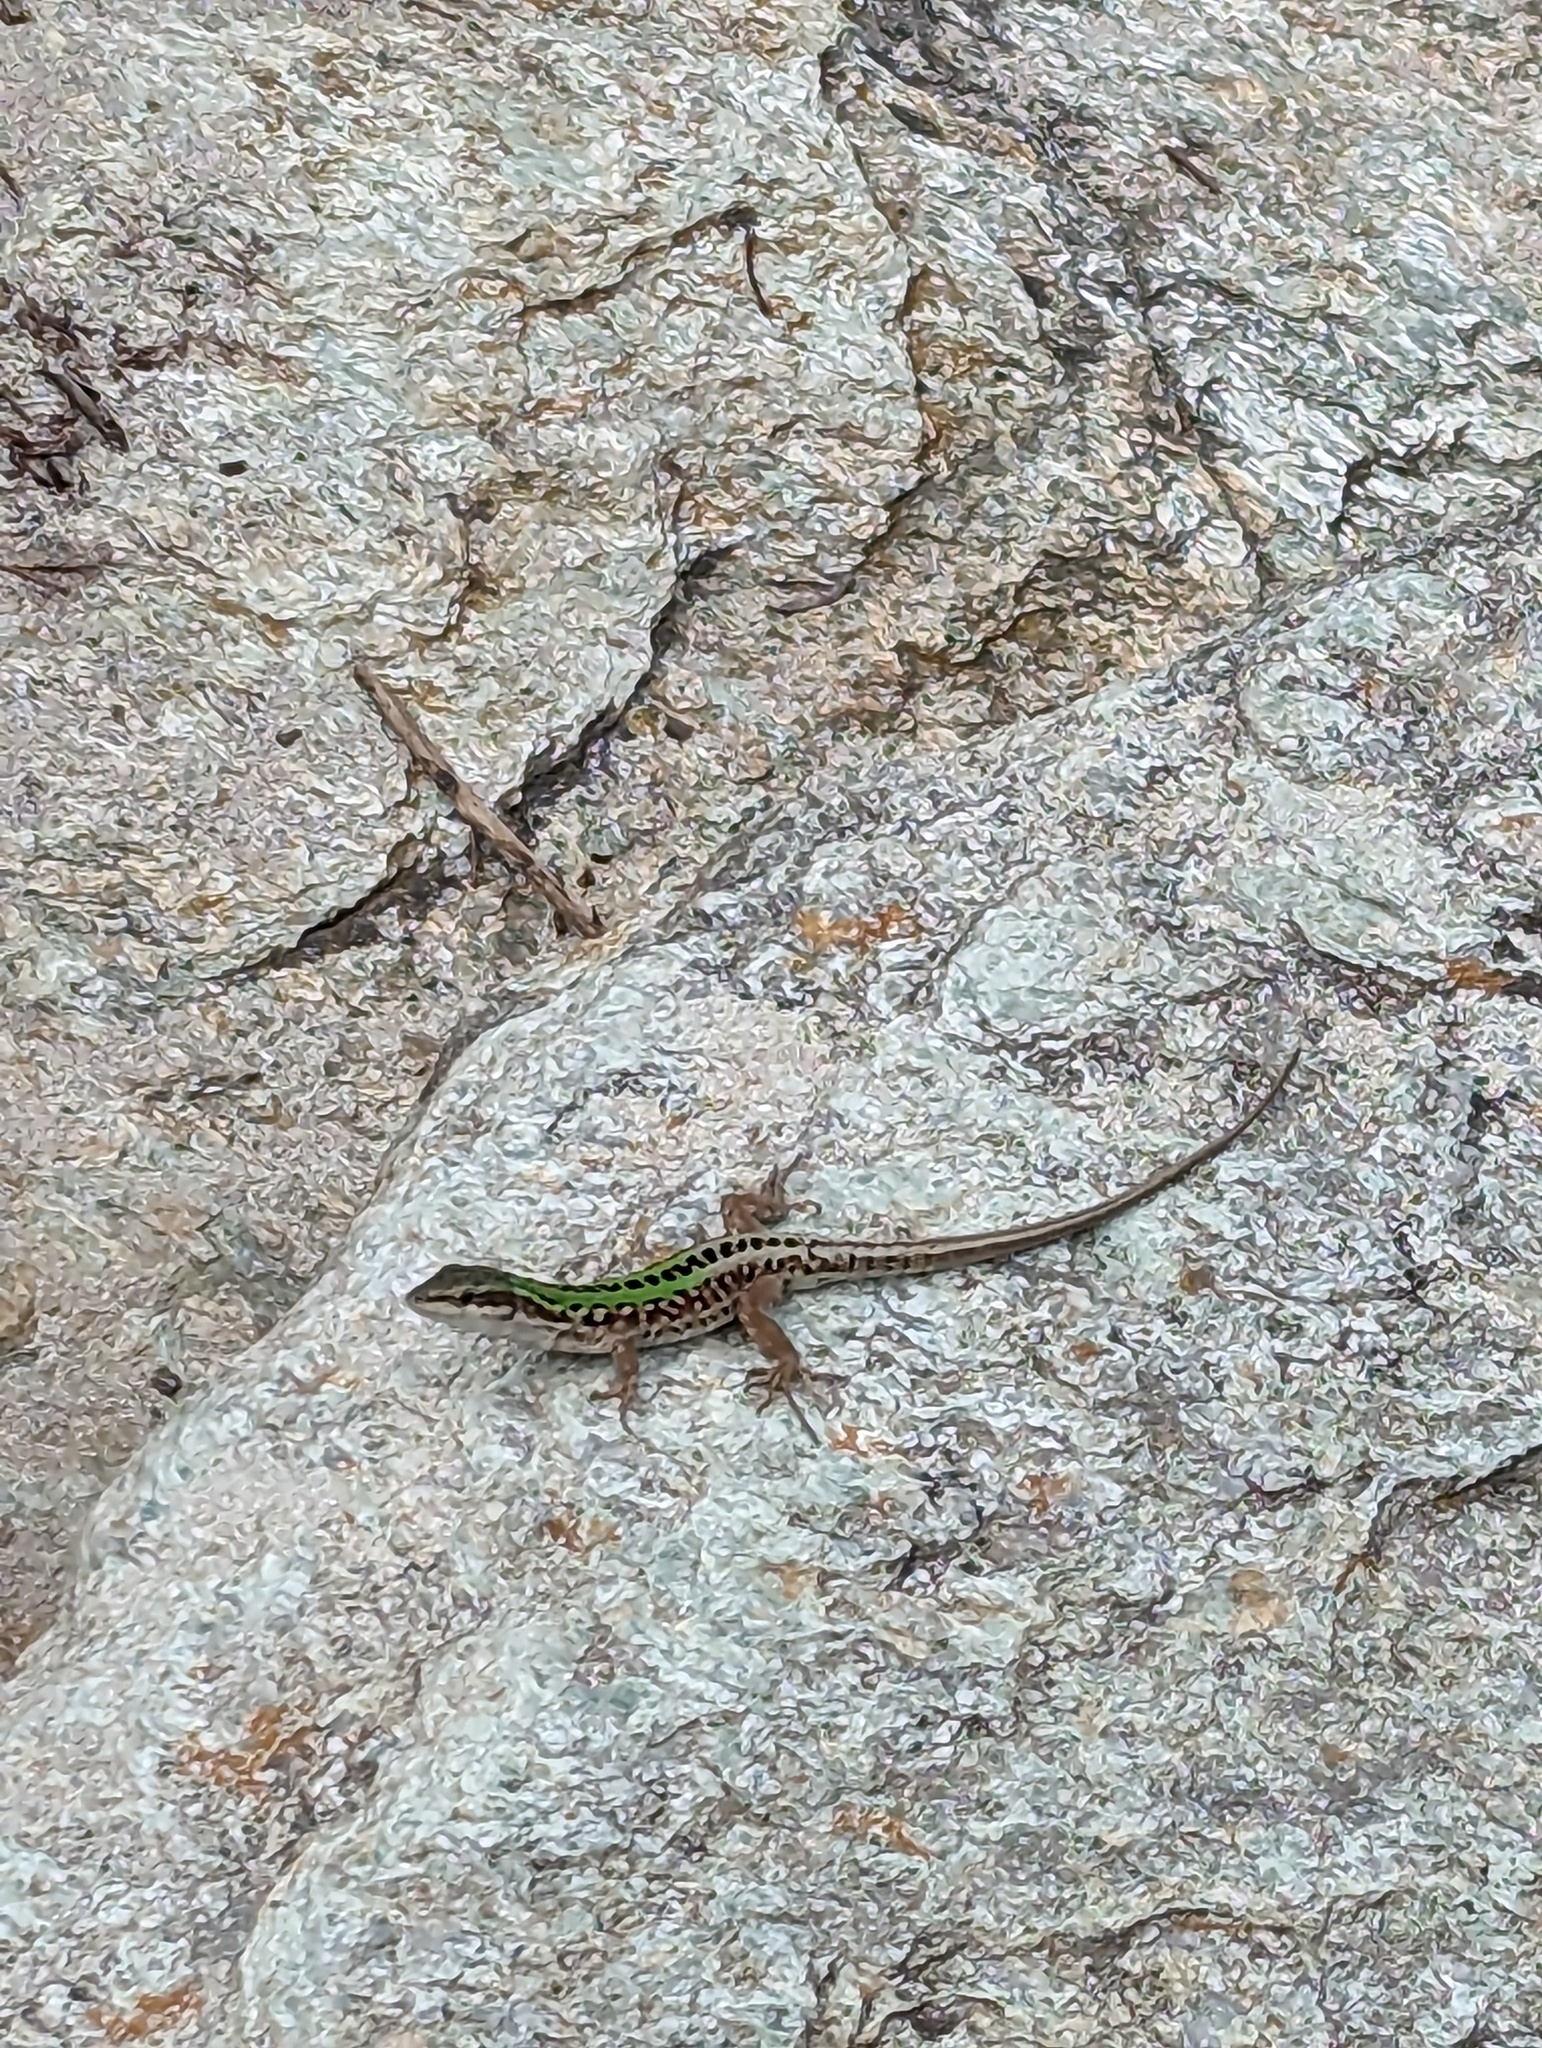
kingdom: Animalia
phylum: Chordata
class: Squamata
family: Lacertidae
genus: Podarcis
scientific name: Podarcis siculus
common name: Italian wall lizard
